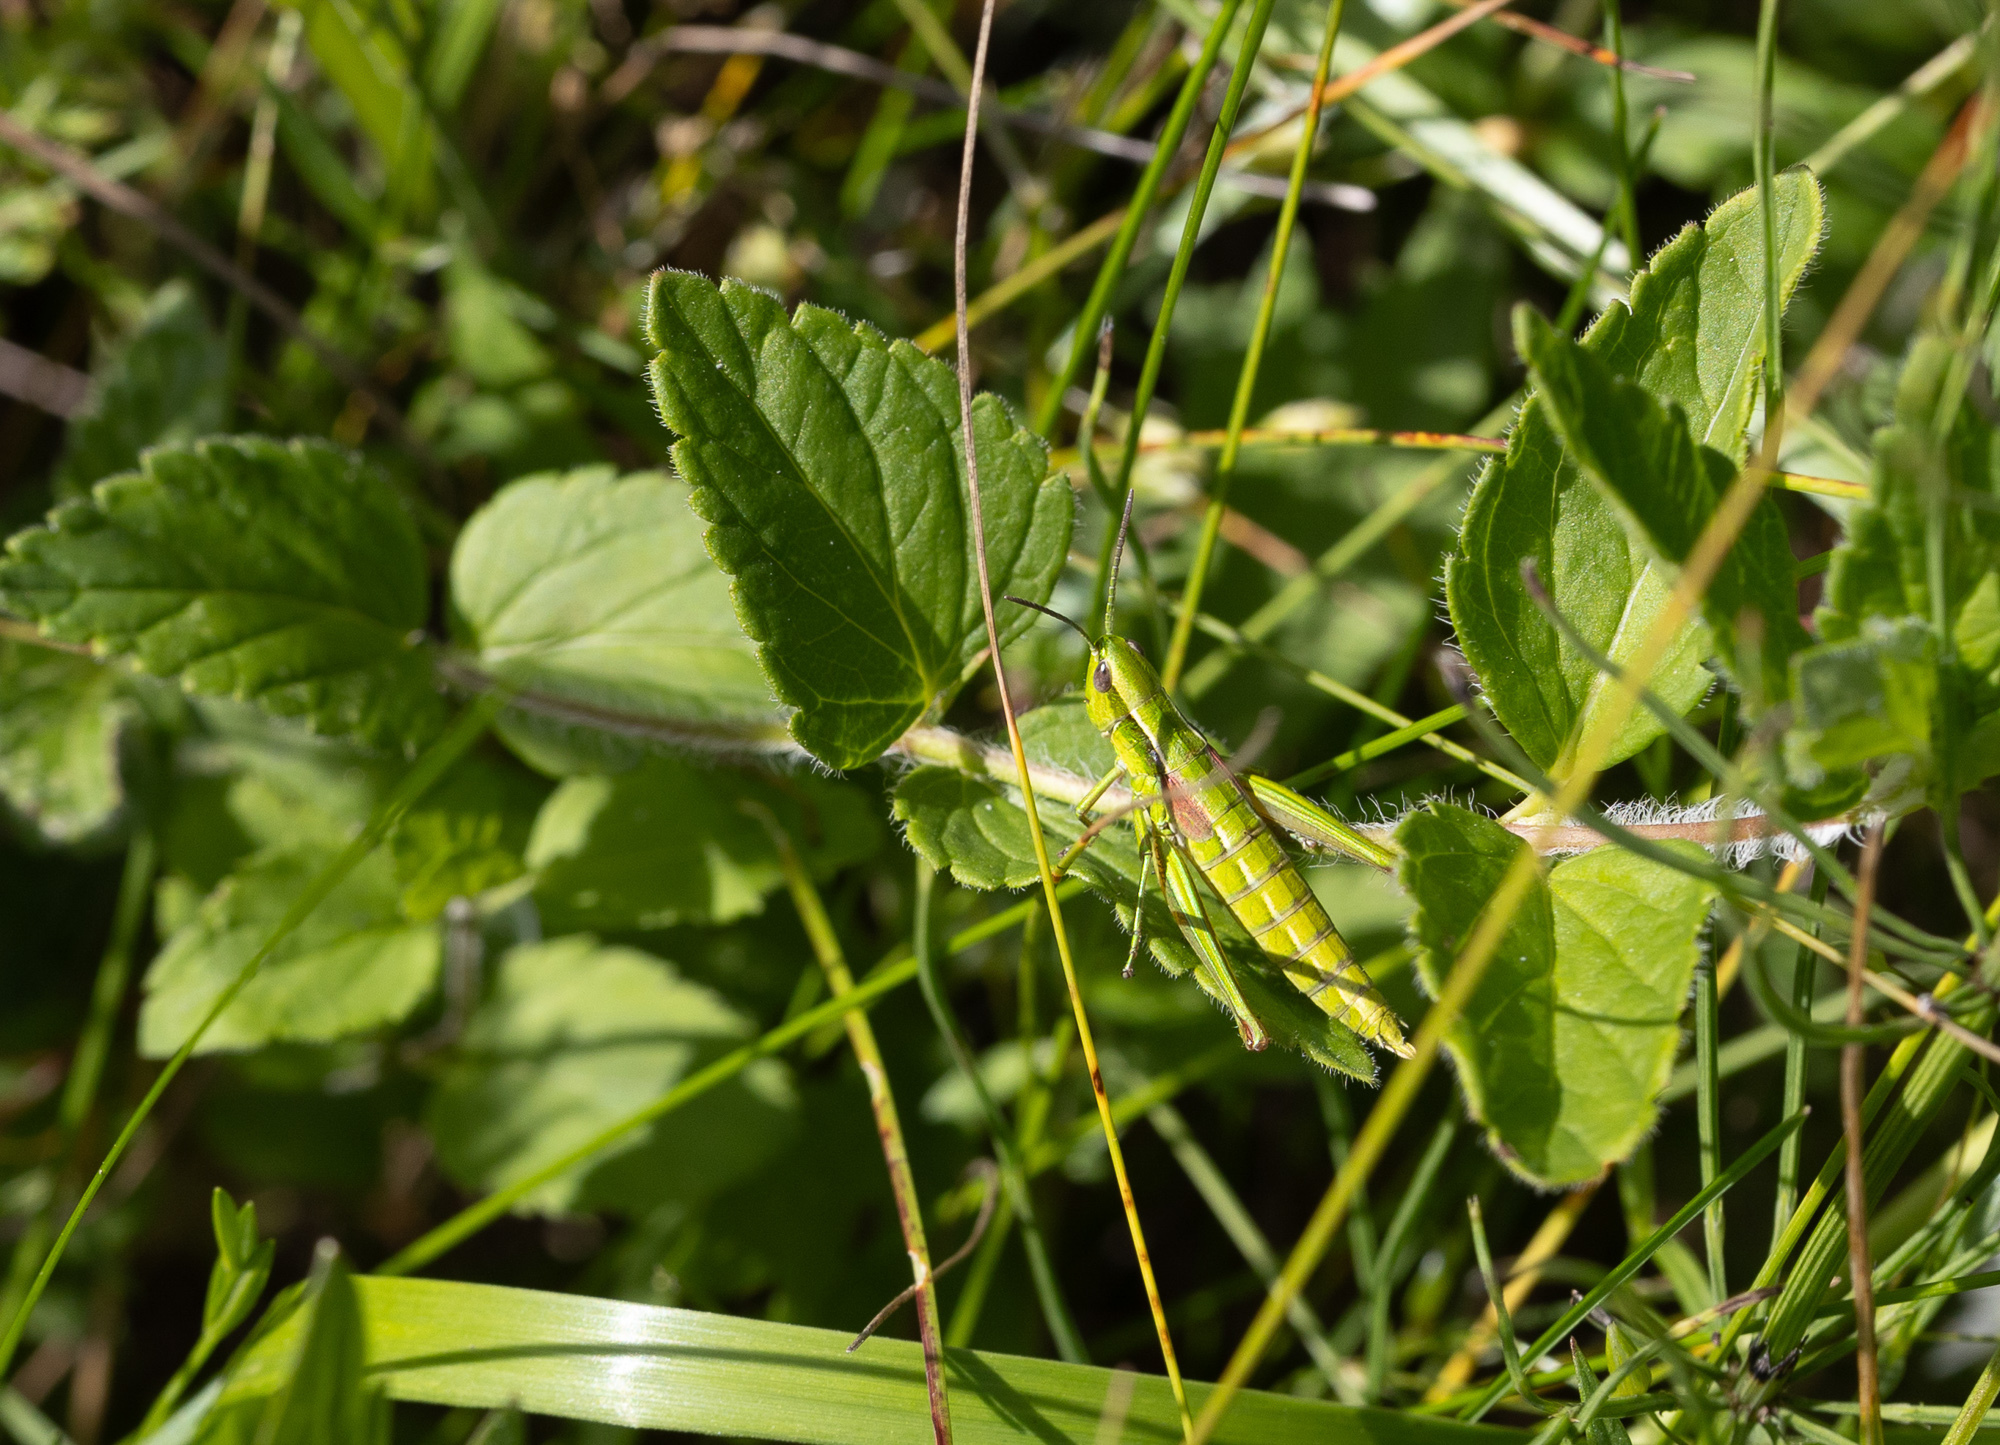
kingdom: Animalia
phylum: Arthropoda
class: Insecta
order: Orthoptera
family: Acrididae
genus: Euthystira
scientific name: Euthystira brachyptera
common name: Small gold grasshopper
